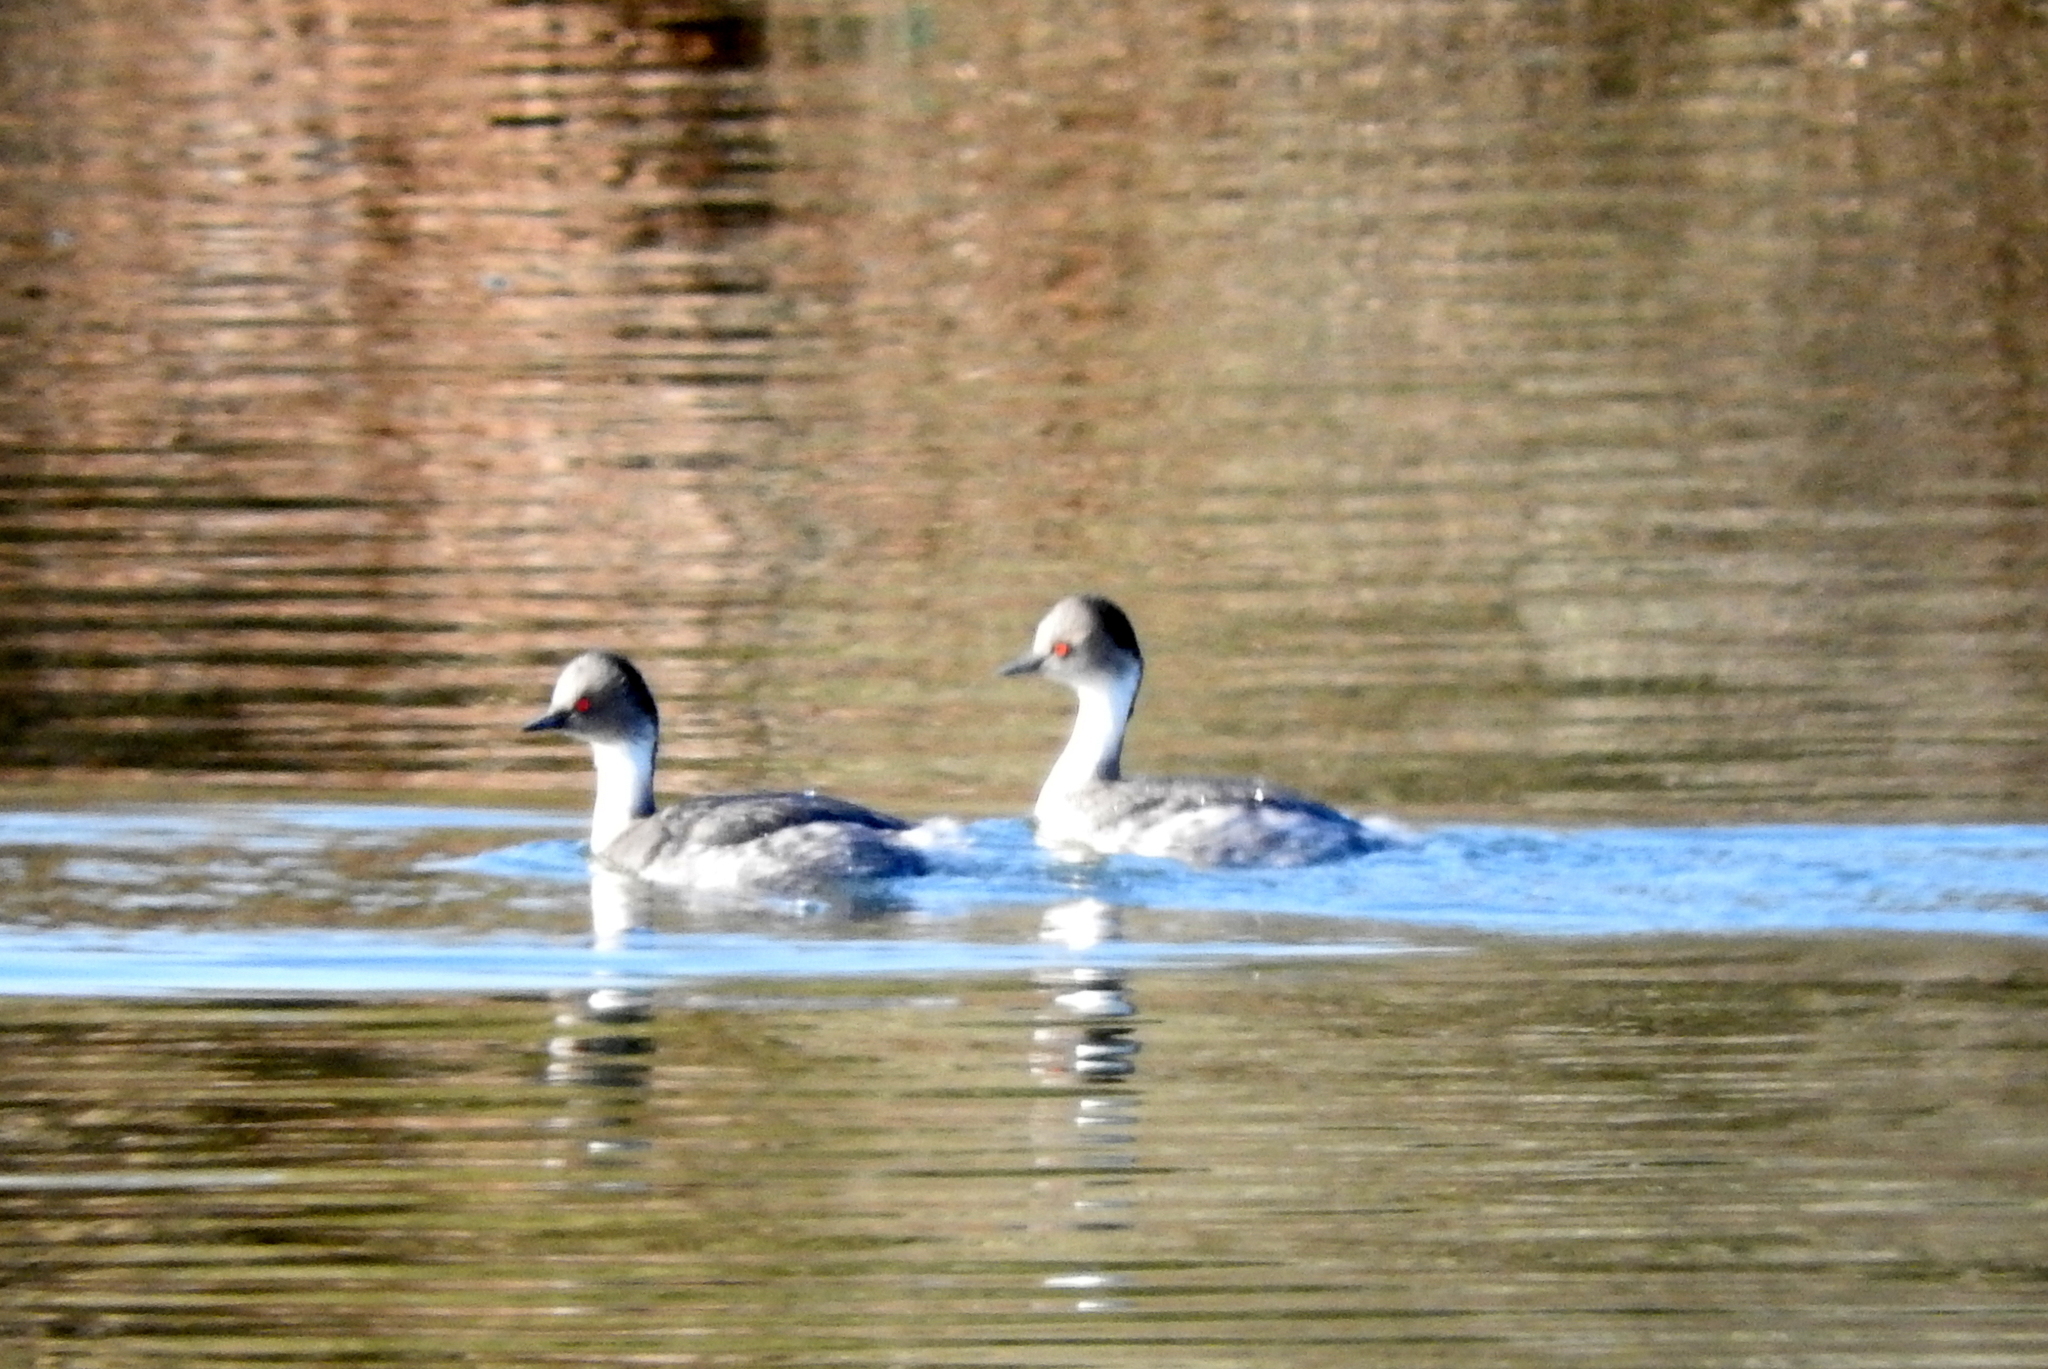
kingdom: Animalia
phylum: Chordata
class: Aves
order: Podicipediformes
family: Podicipedidae
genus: Podiceps
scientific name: Podiceps occipitalis
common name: Silvery grebe
